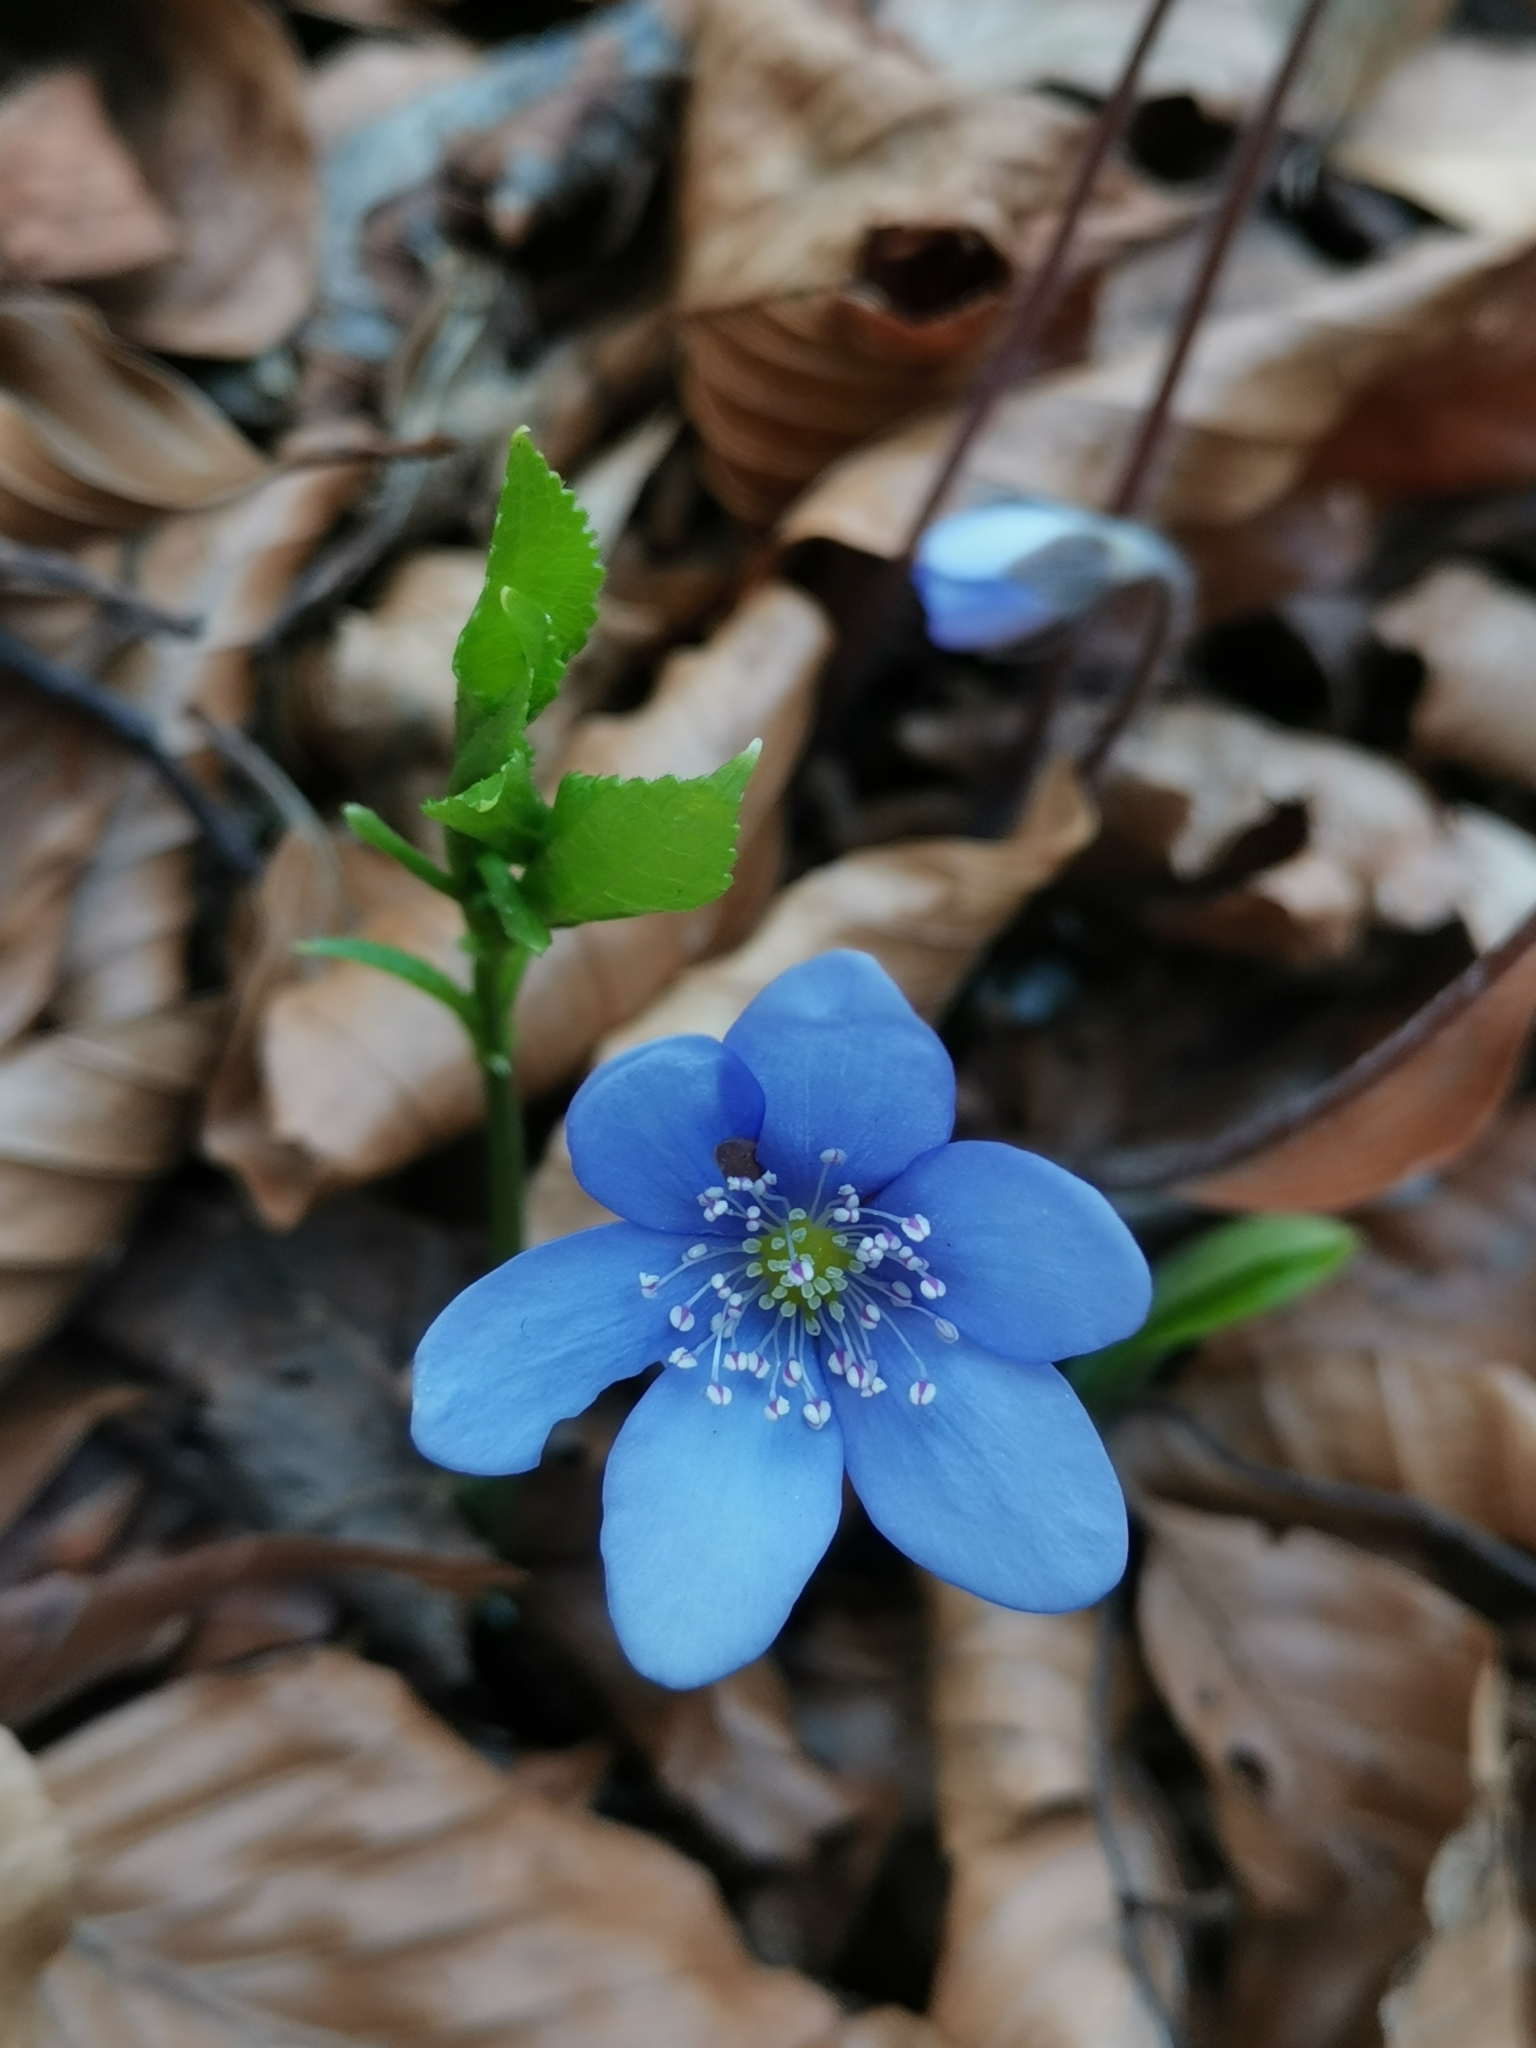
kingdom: Plantae
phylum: Tracheophyta
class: Magnoliopsida
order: Ranunculales
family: Ranunculaceae
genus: Hepatica
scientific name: Hepatica nobilis
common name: Liverleaf
